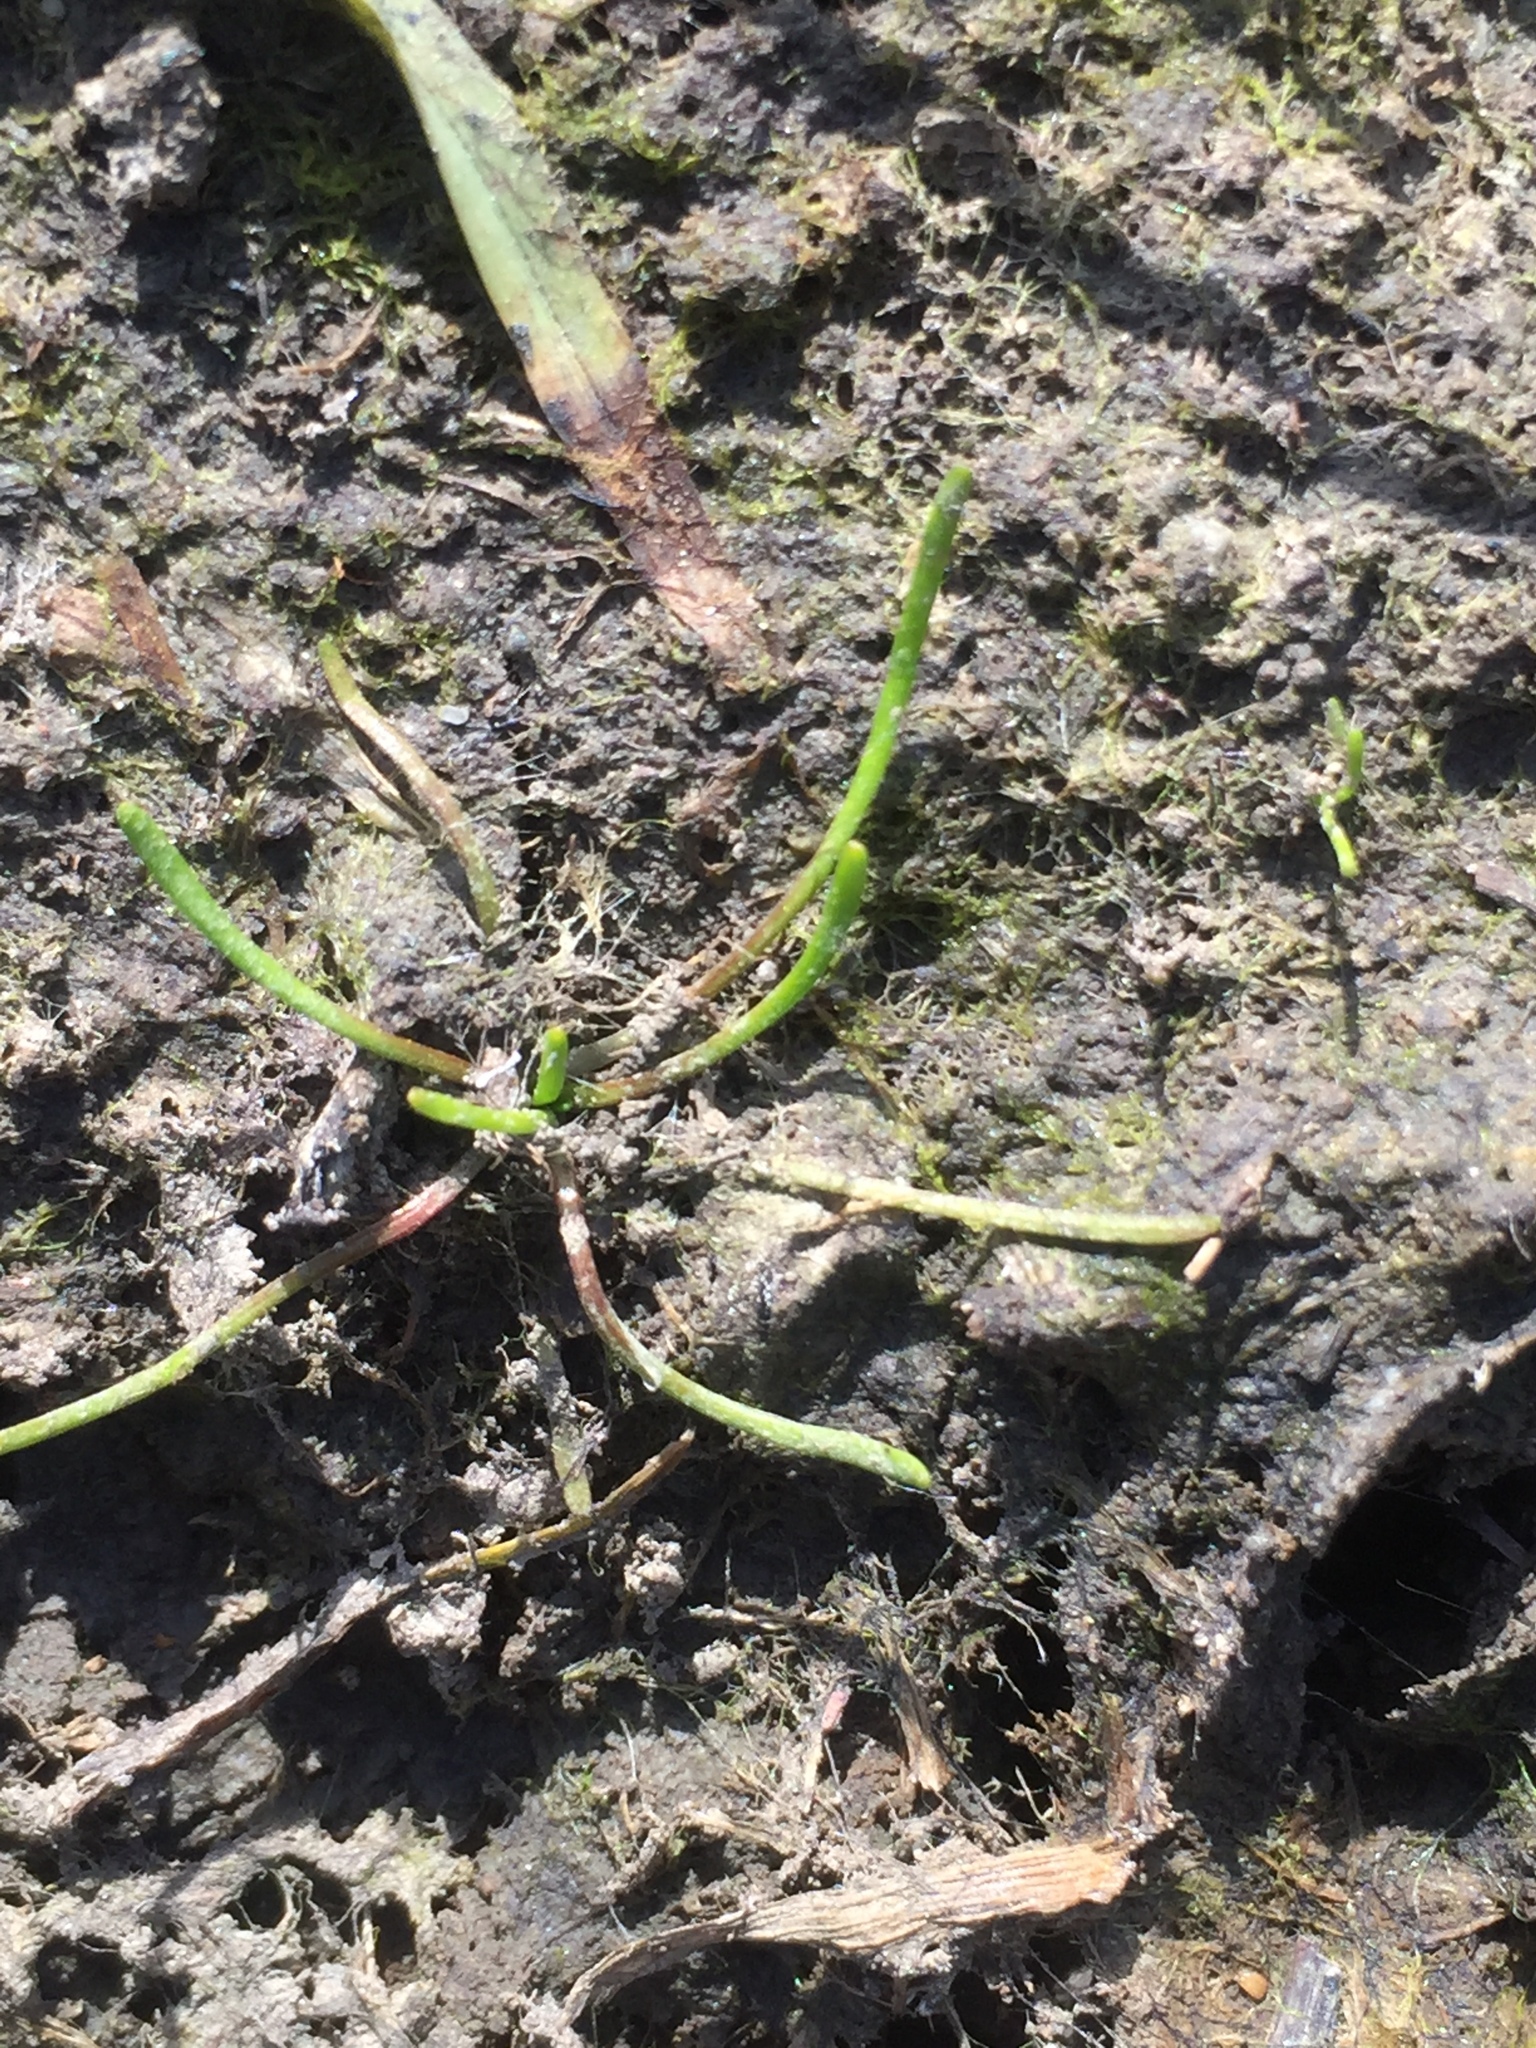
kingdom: Plantae
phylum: Tracheophyta
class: Magnoliopsida
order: Ranunculales
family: Ranunculaceae
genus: Myosurus
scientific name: Myosurus minimus
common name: Mousetail
